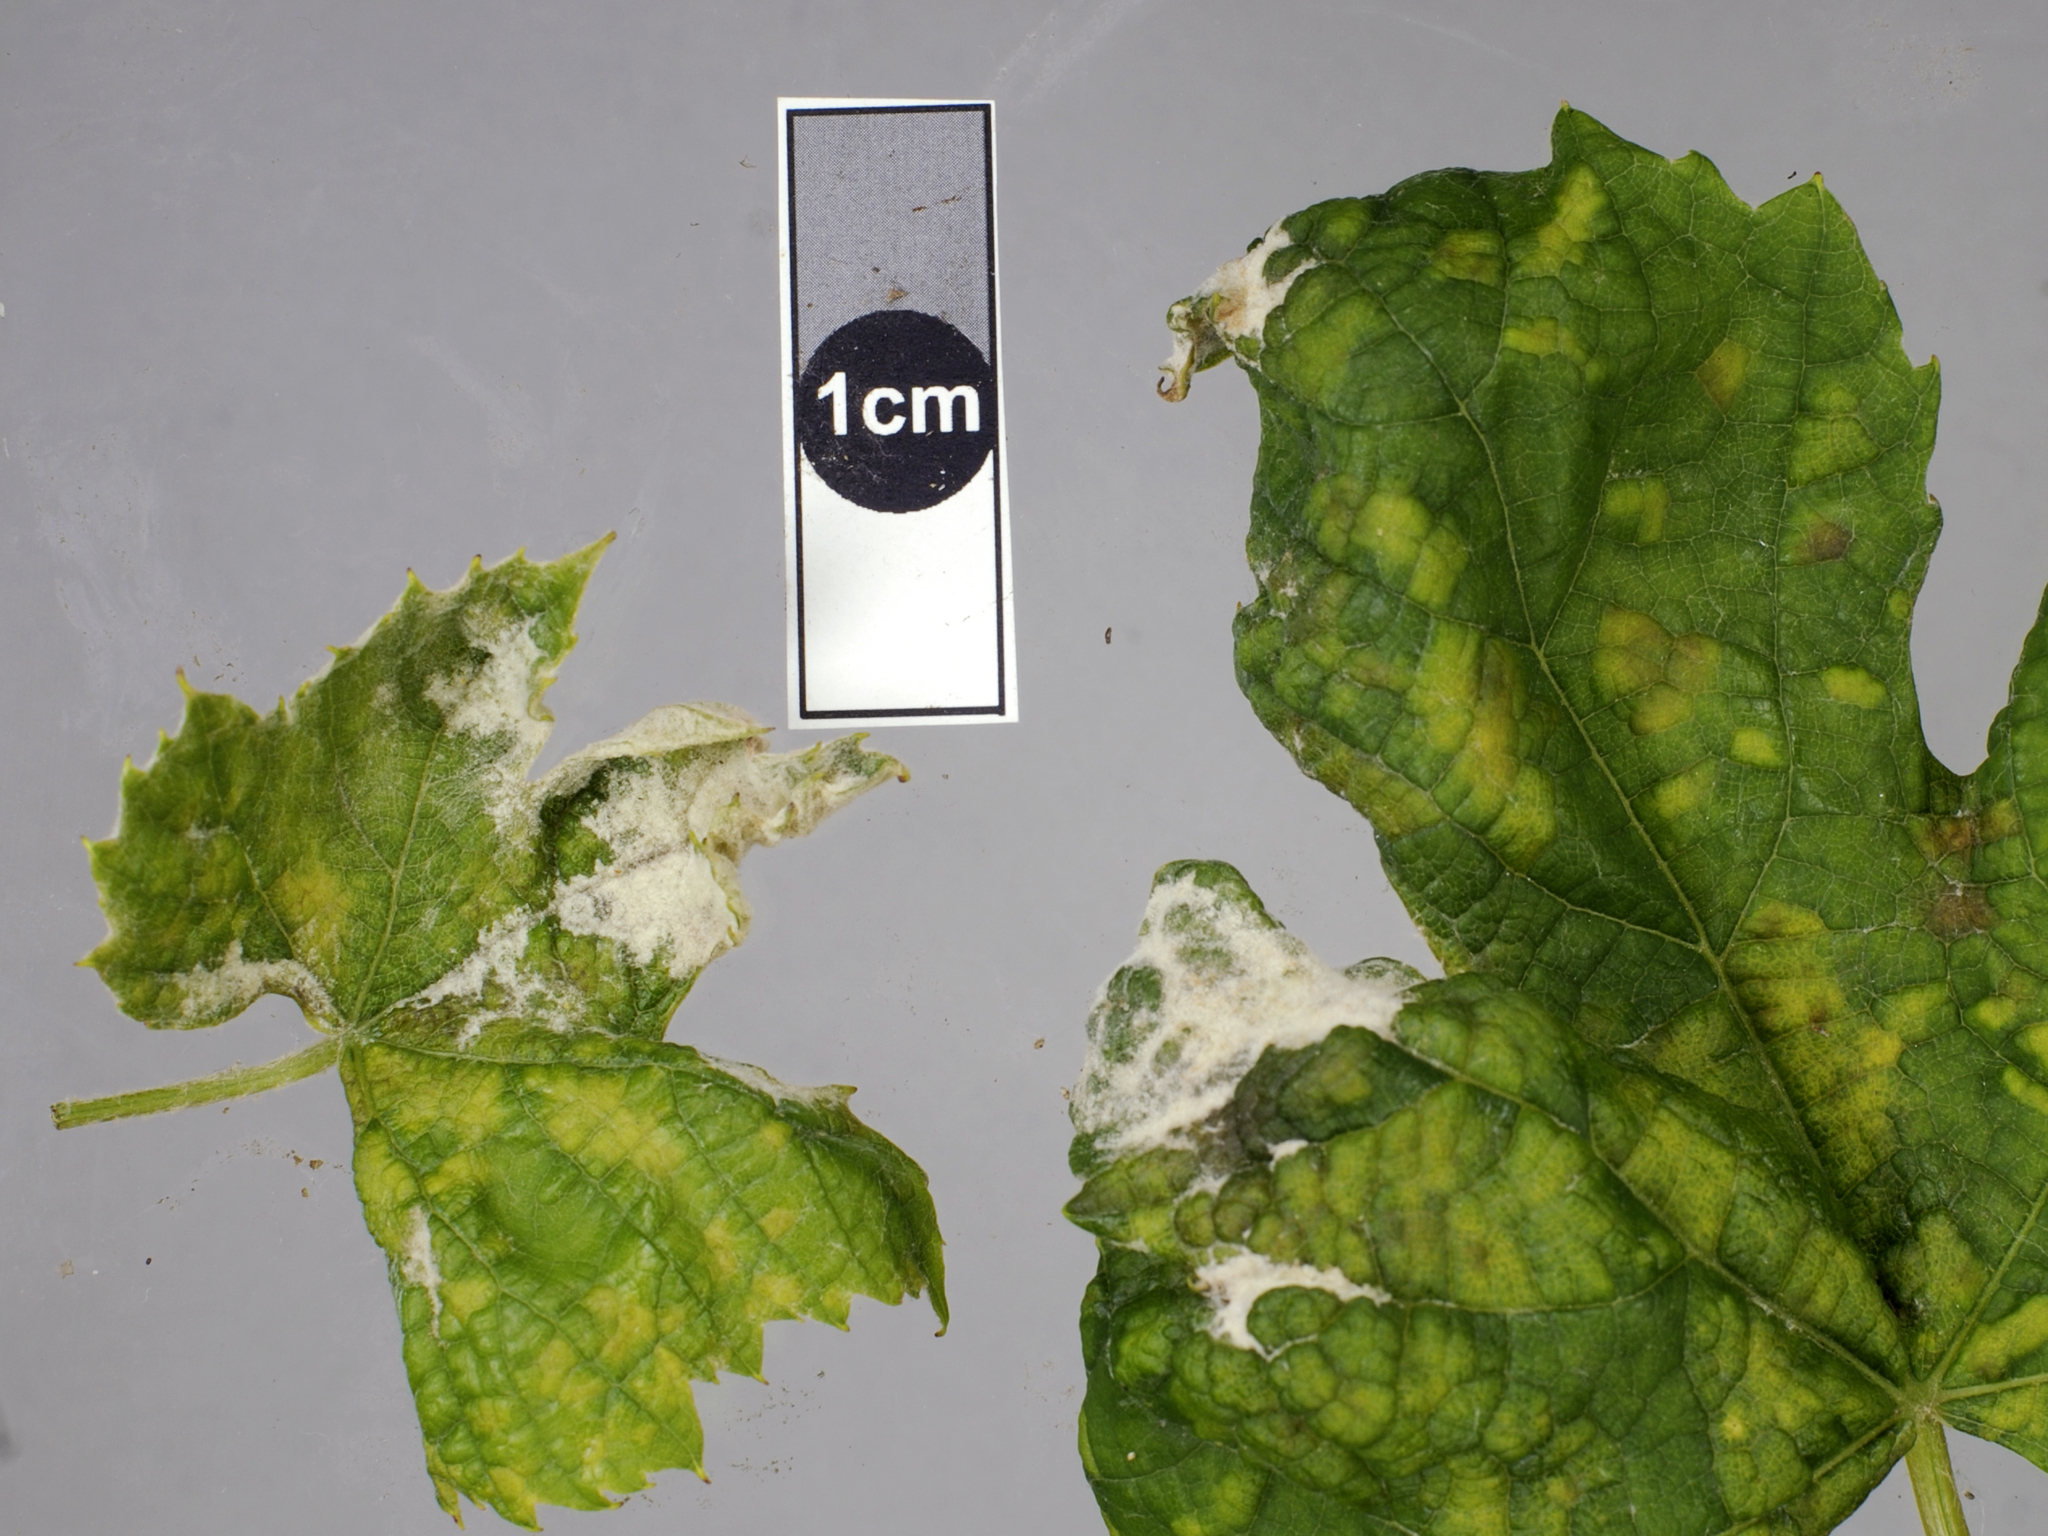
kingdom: Fungi
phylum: Ascomycota
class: Leotiomycetes
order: Helotiales
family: Erysiphaceae
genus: Erysiphe
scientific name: Erysiphe necator
